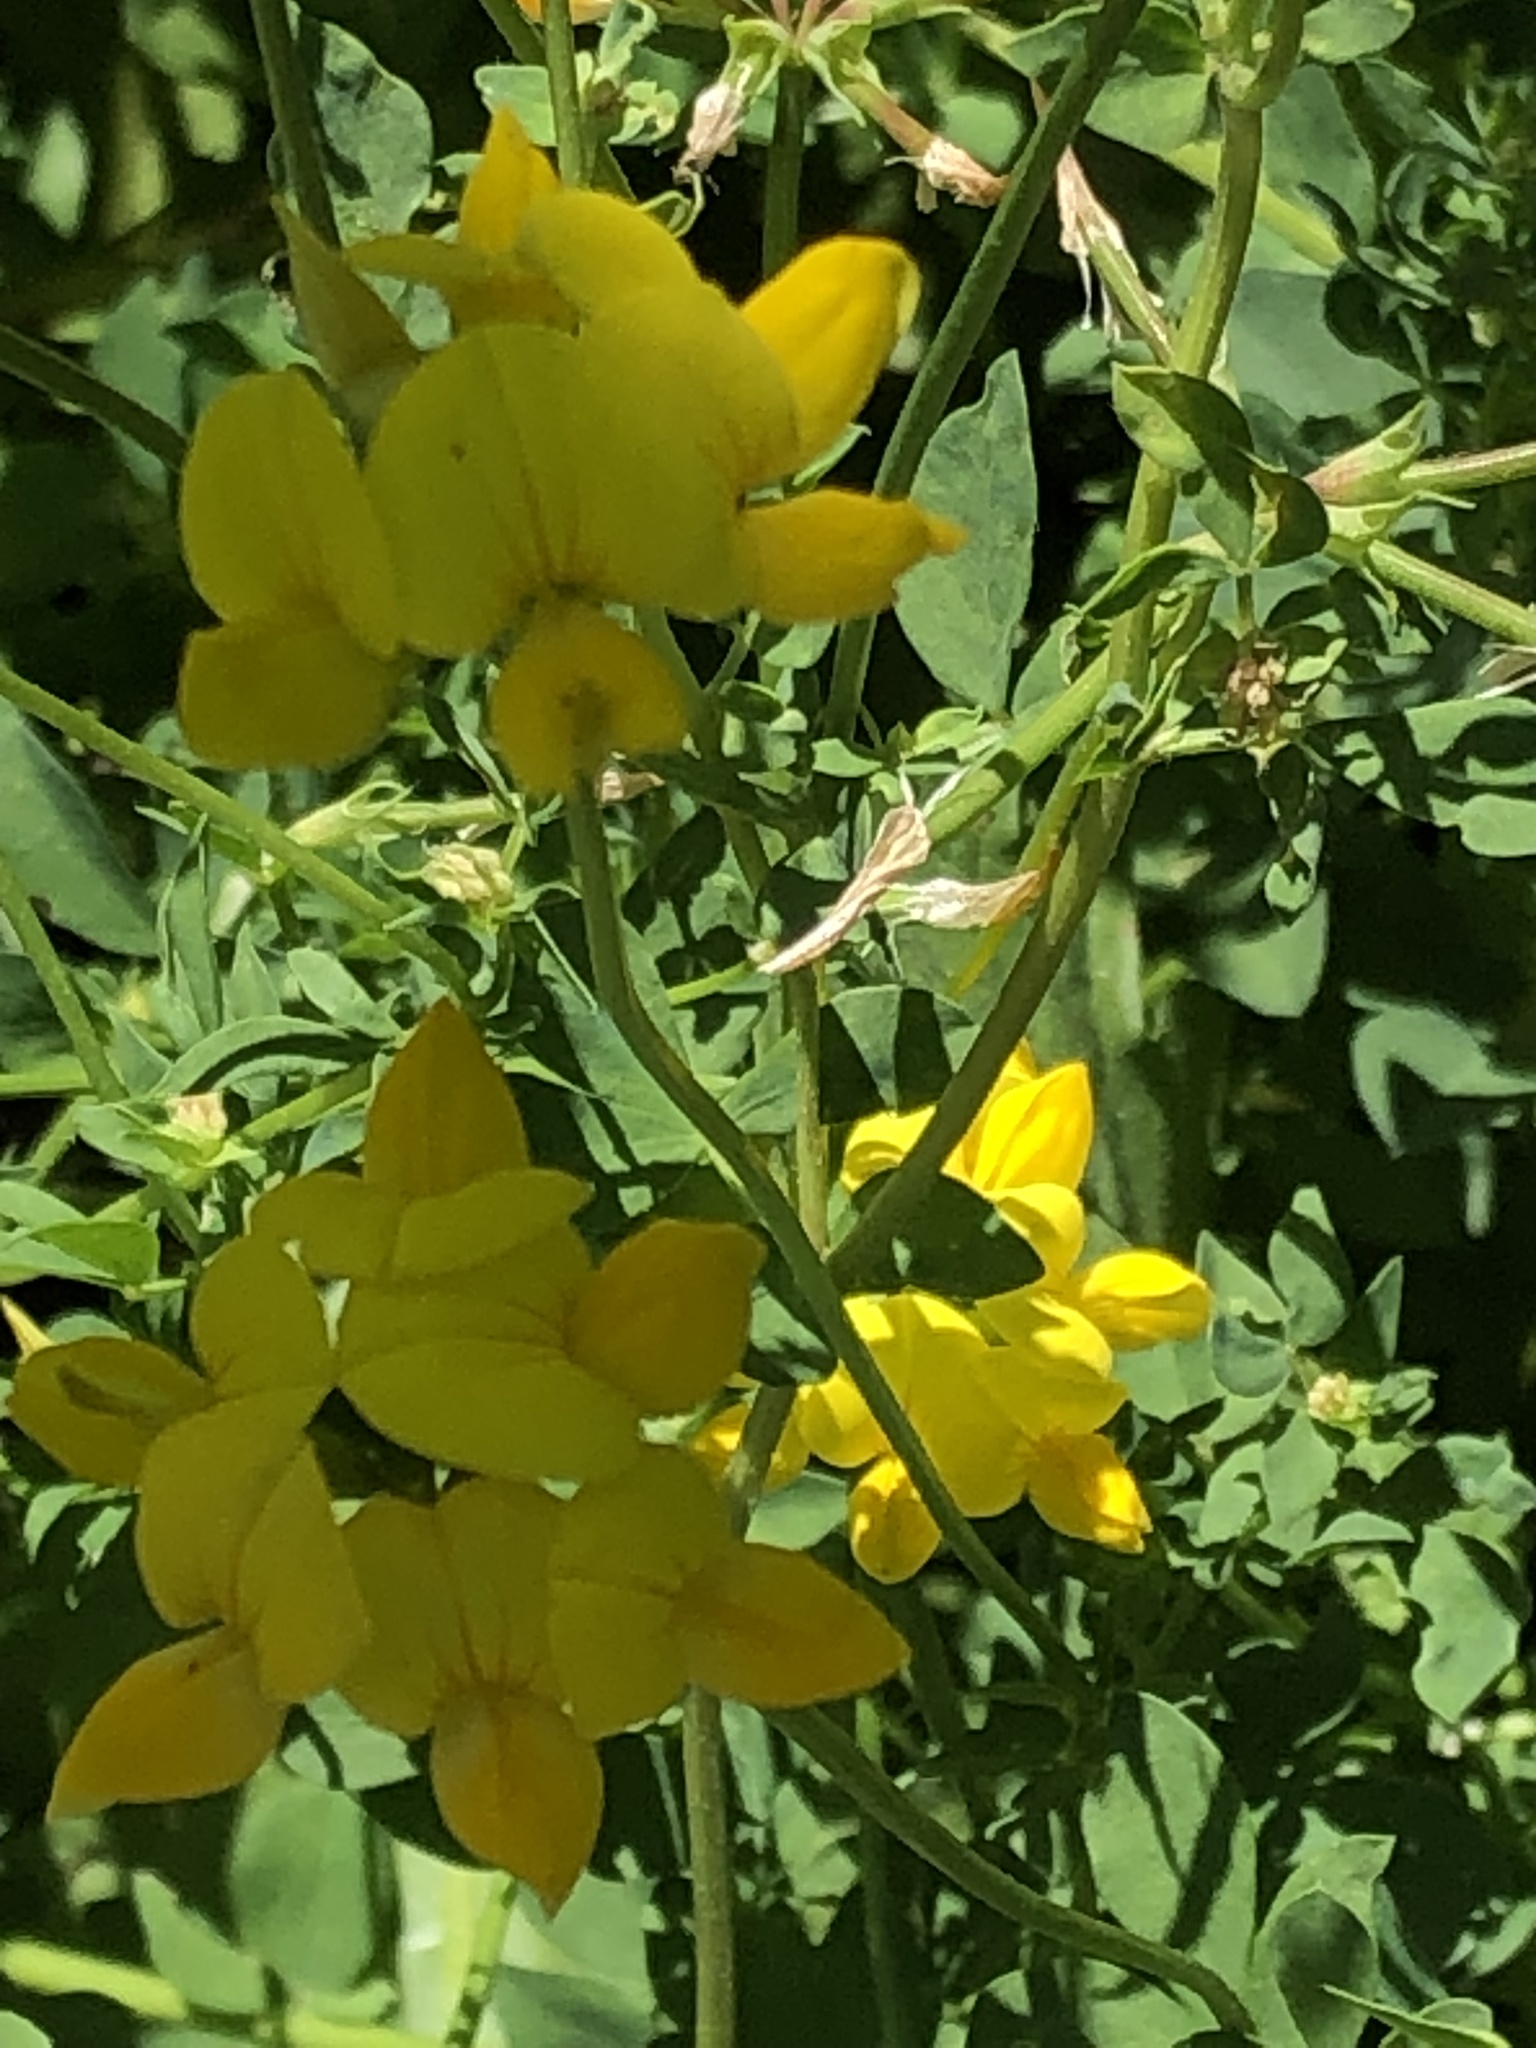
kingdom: Plantae
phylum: Tracheophyta
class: Magnoliopsida
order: Fabales
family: Fabaceae
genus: Lotus
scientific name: Lotus corniculatus
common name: Common bird's-foot-trefoil
